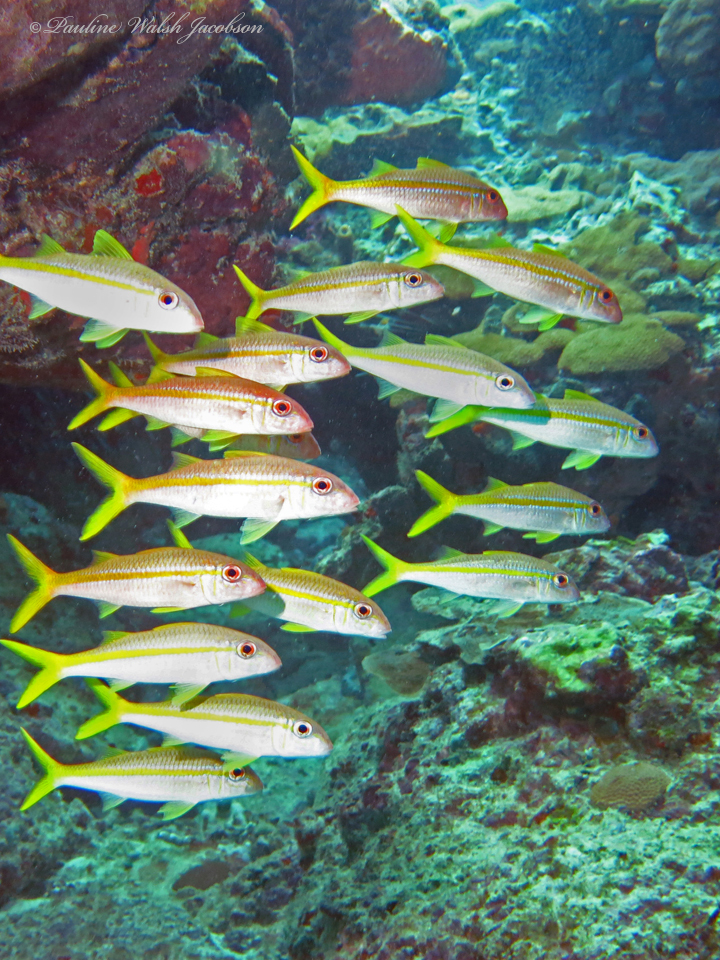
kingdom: Animalia
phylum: Chordata
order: Perciformes
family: Mullidae
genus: Mulloidichthys
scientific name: Mulloidichthys martinicus
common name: Yellow goatfish
